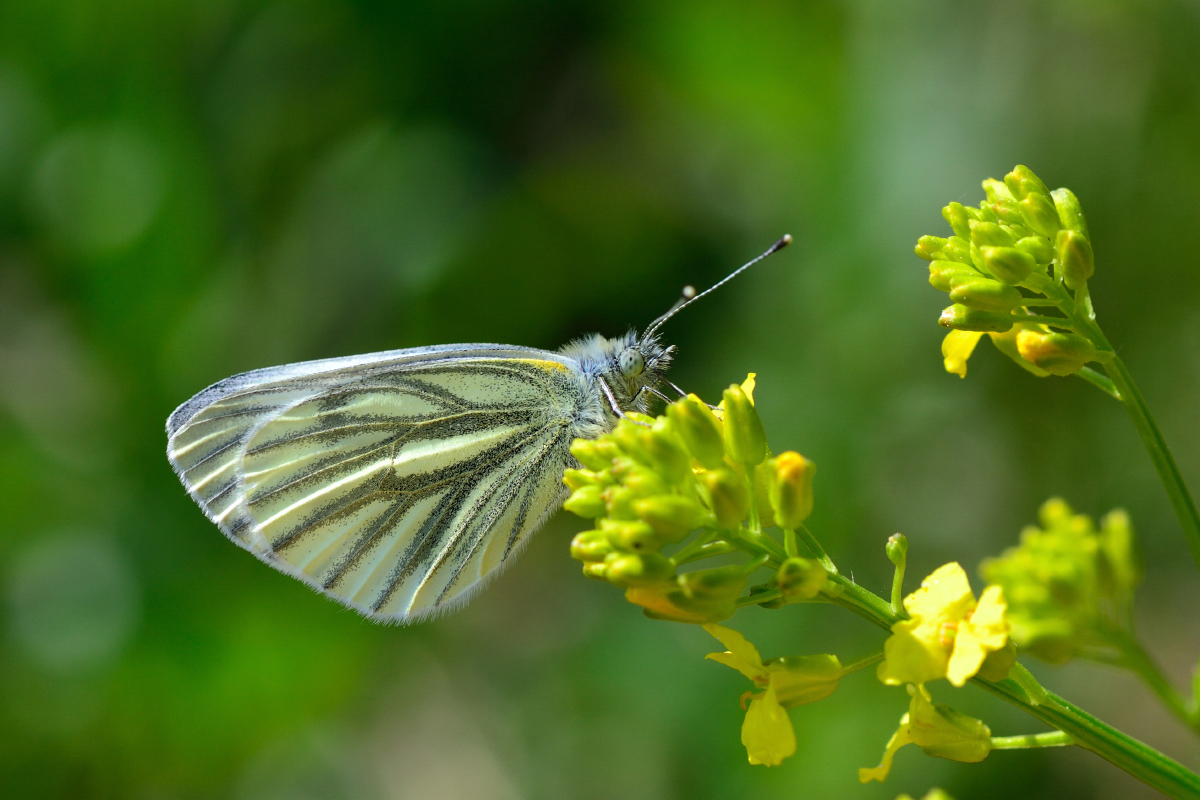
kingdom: Animalia
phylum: Arthropoda
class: Insecta
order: Lepidoptera
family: Pieridae
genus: Pieris
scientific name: Pieris napi
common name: Green-veined white
